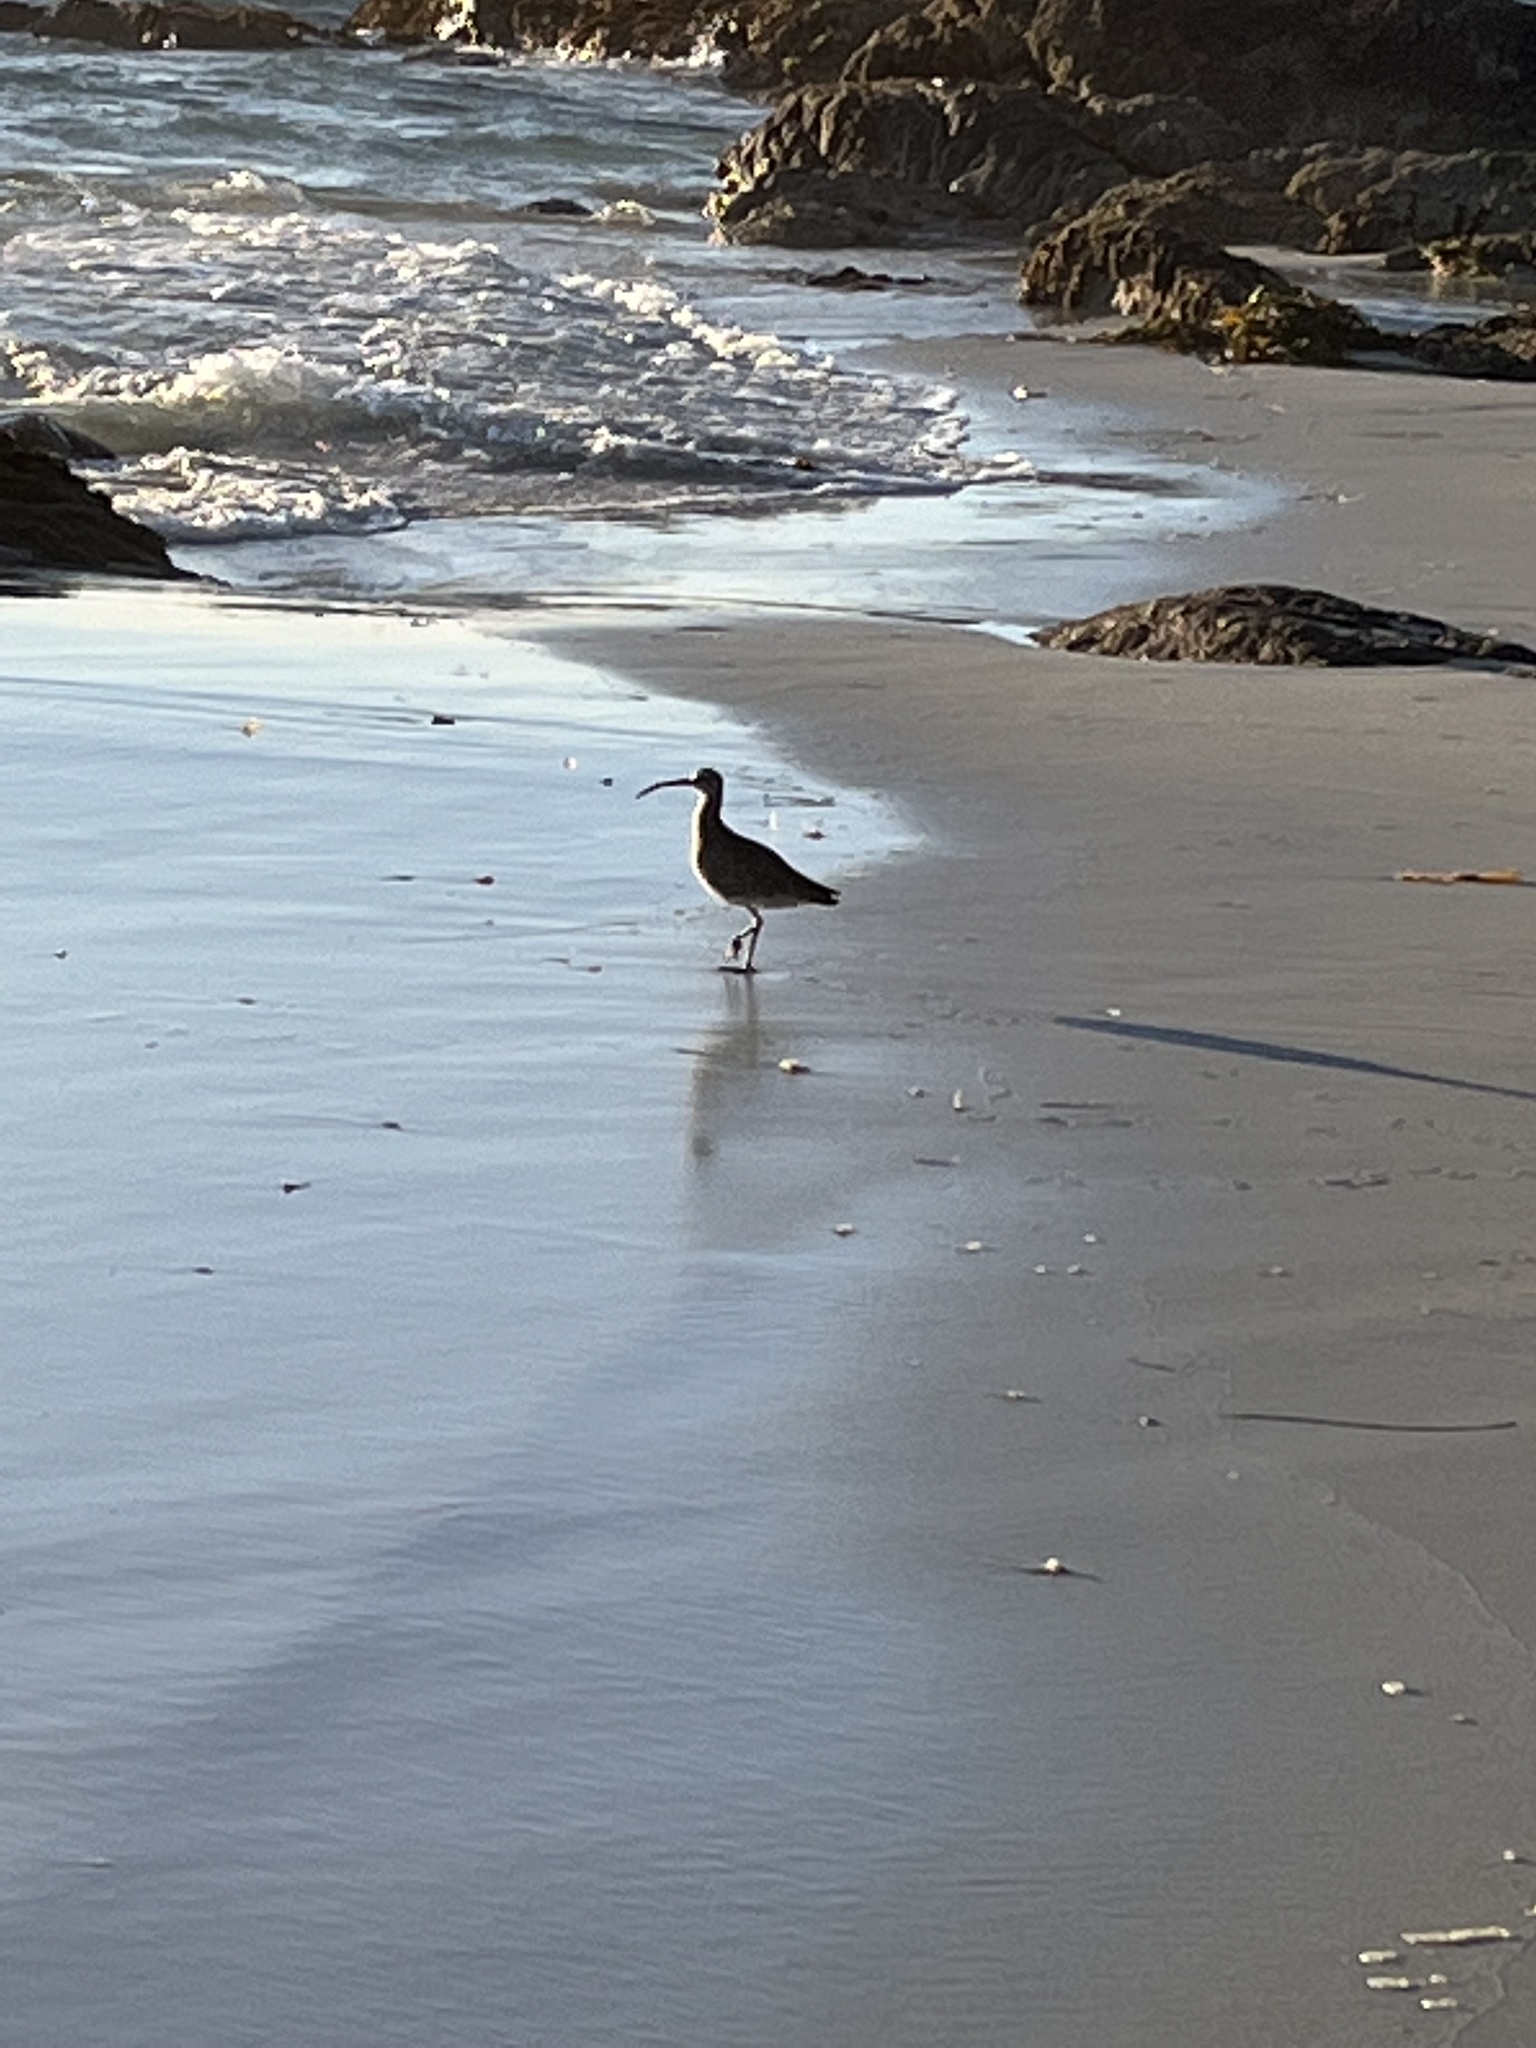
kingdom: Animalia
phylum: Chordata
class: Aves
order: Charadriiformes
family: Scolopacidae
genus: Numenius
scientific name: Numenius phaeopus
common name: Whimbrel
